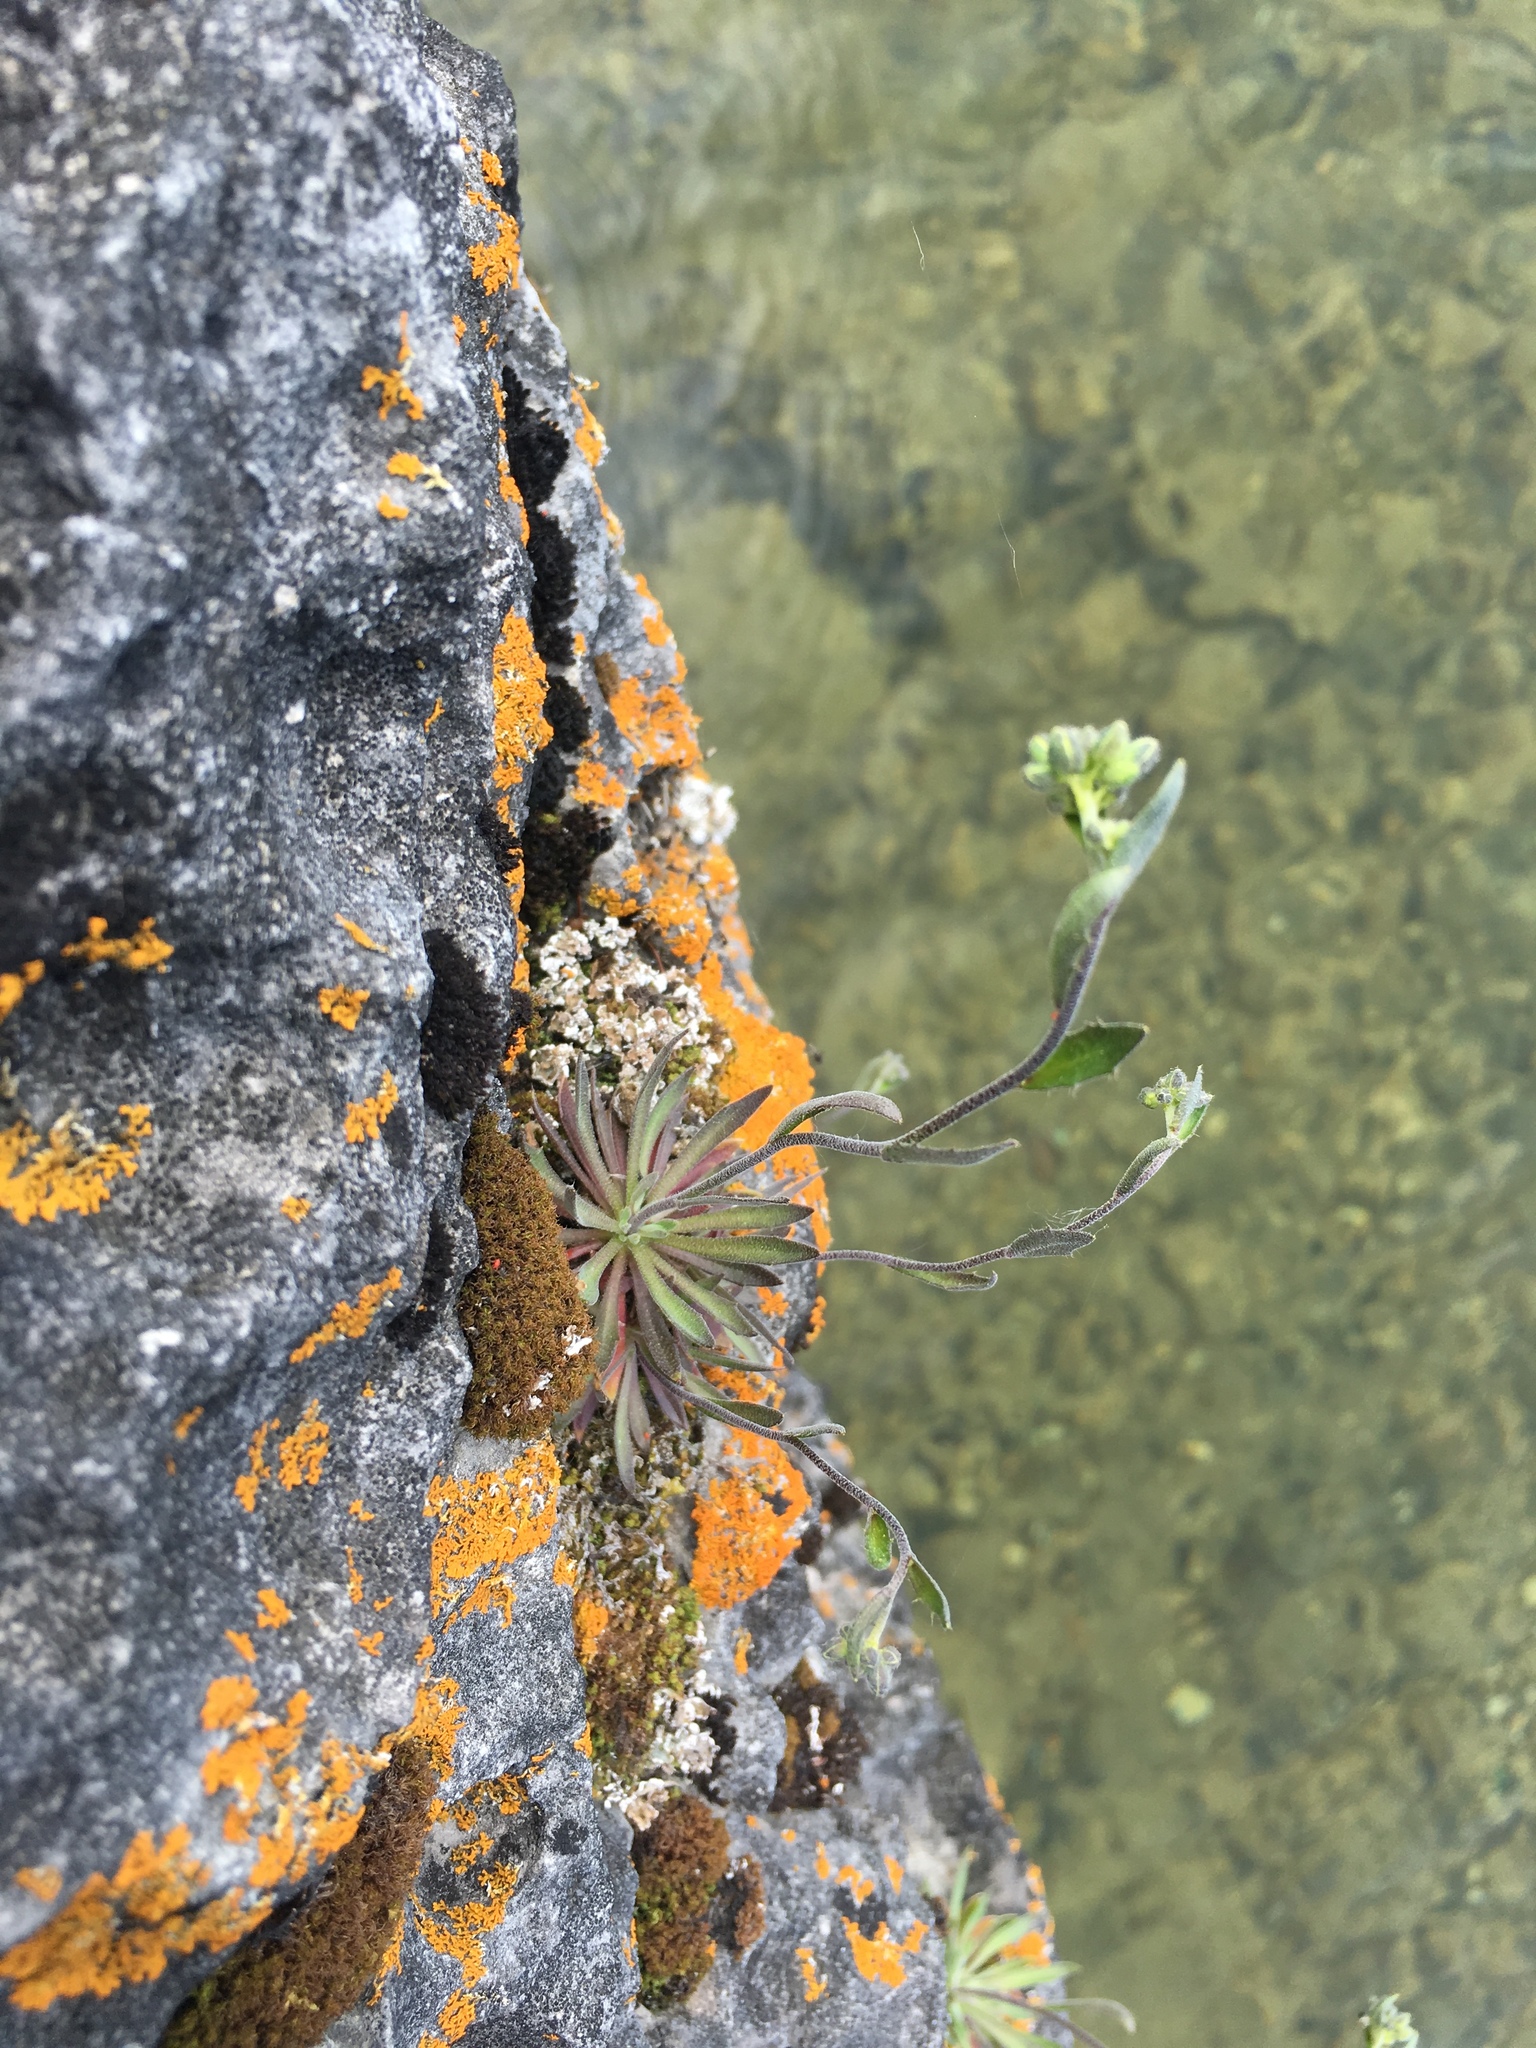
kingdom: Plantae
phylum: Tracheophyta
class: Magnoliopsida
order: Brassicales
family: Brassicaceae
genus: Draba
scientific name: Draba arabisans
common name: Rock draba
